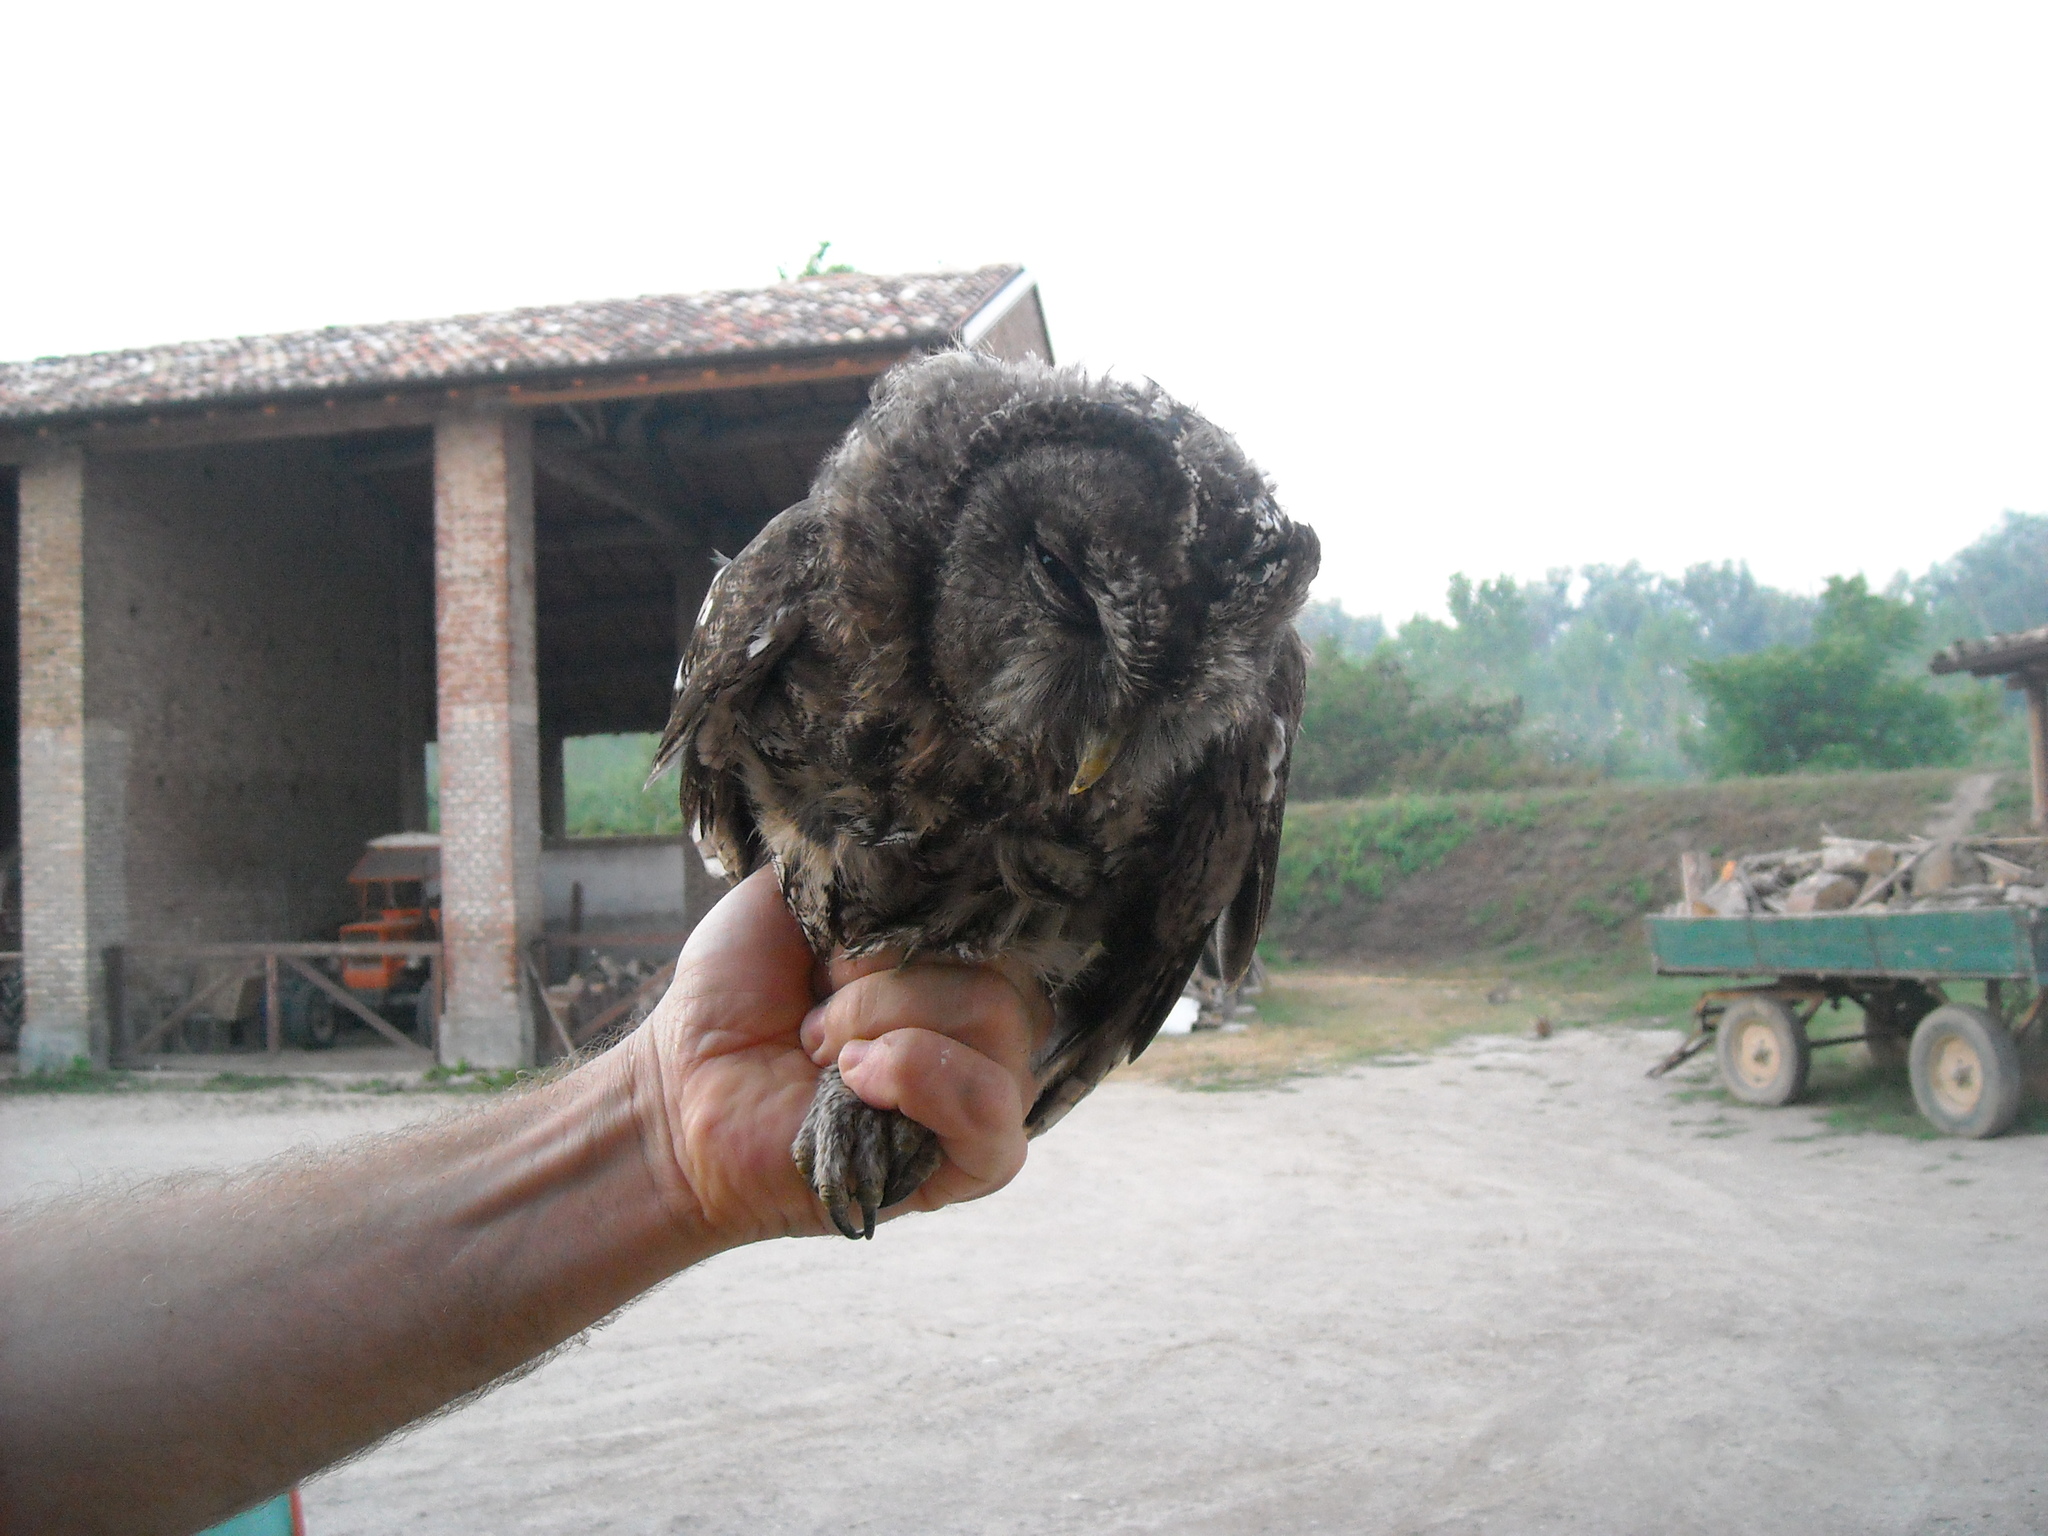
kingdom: Animalia
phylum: Chordata
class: Aves
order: Strigiformes
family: Strigidae
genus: Strix
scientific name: Strix aluco
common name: Tawny owl
